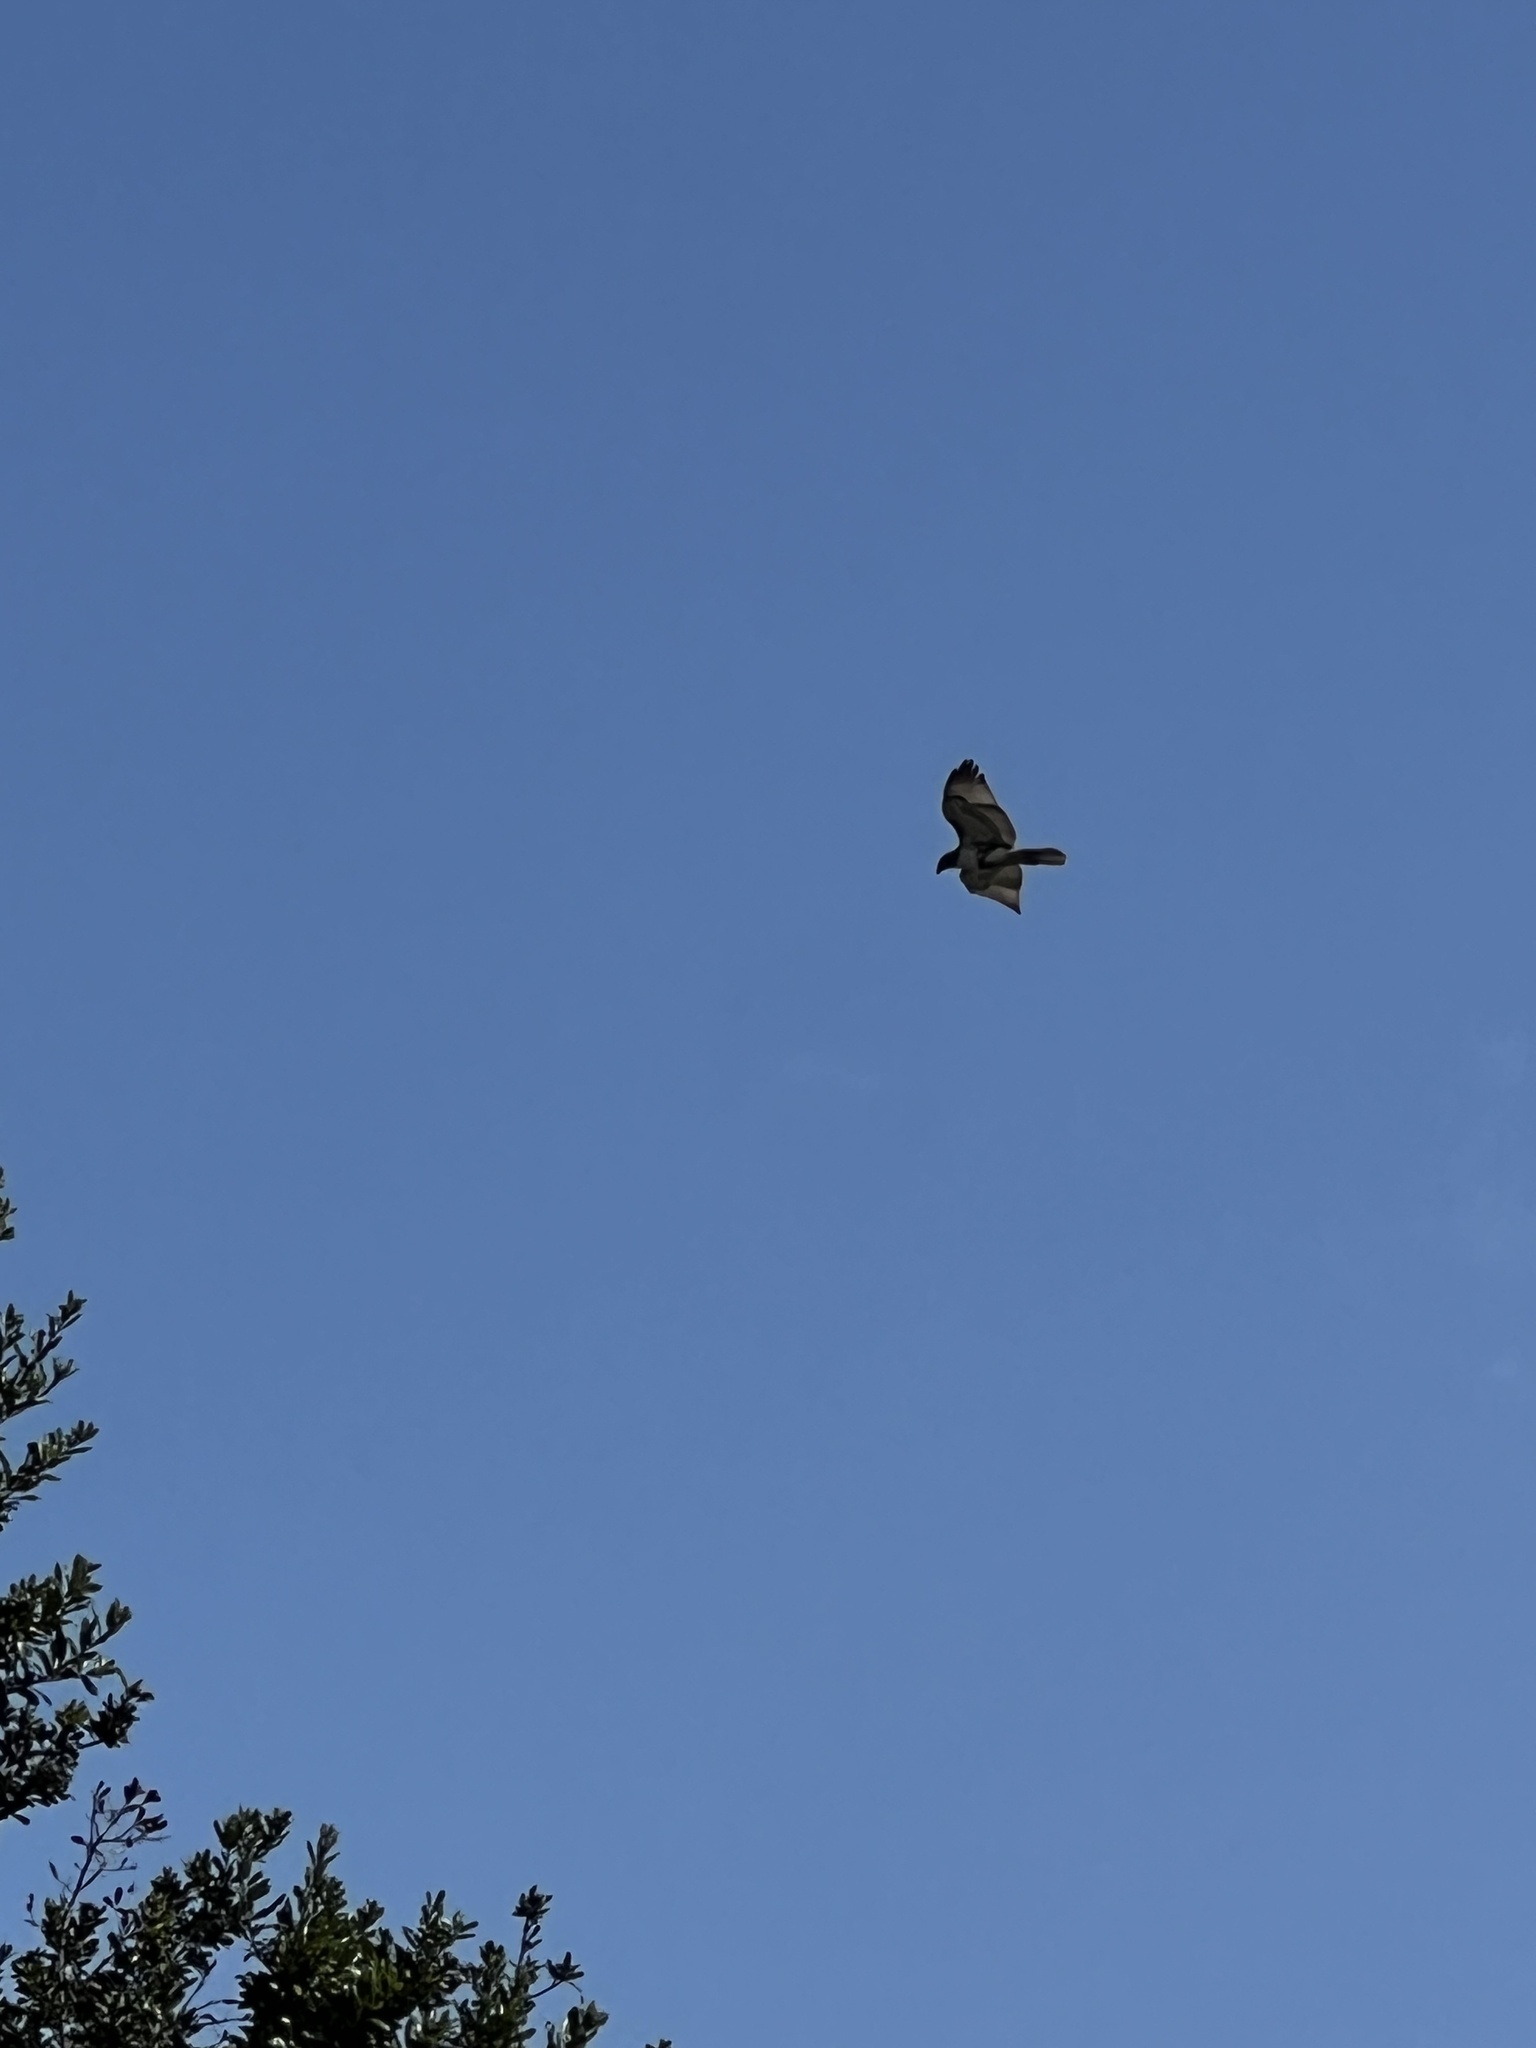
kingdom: Animalia
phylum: Chordata
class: Aves
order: Accipitriformes
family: Accipitridae
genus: Buteo
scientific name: Buteo jamaicensis
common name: Red-tailed hawk
